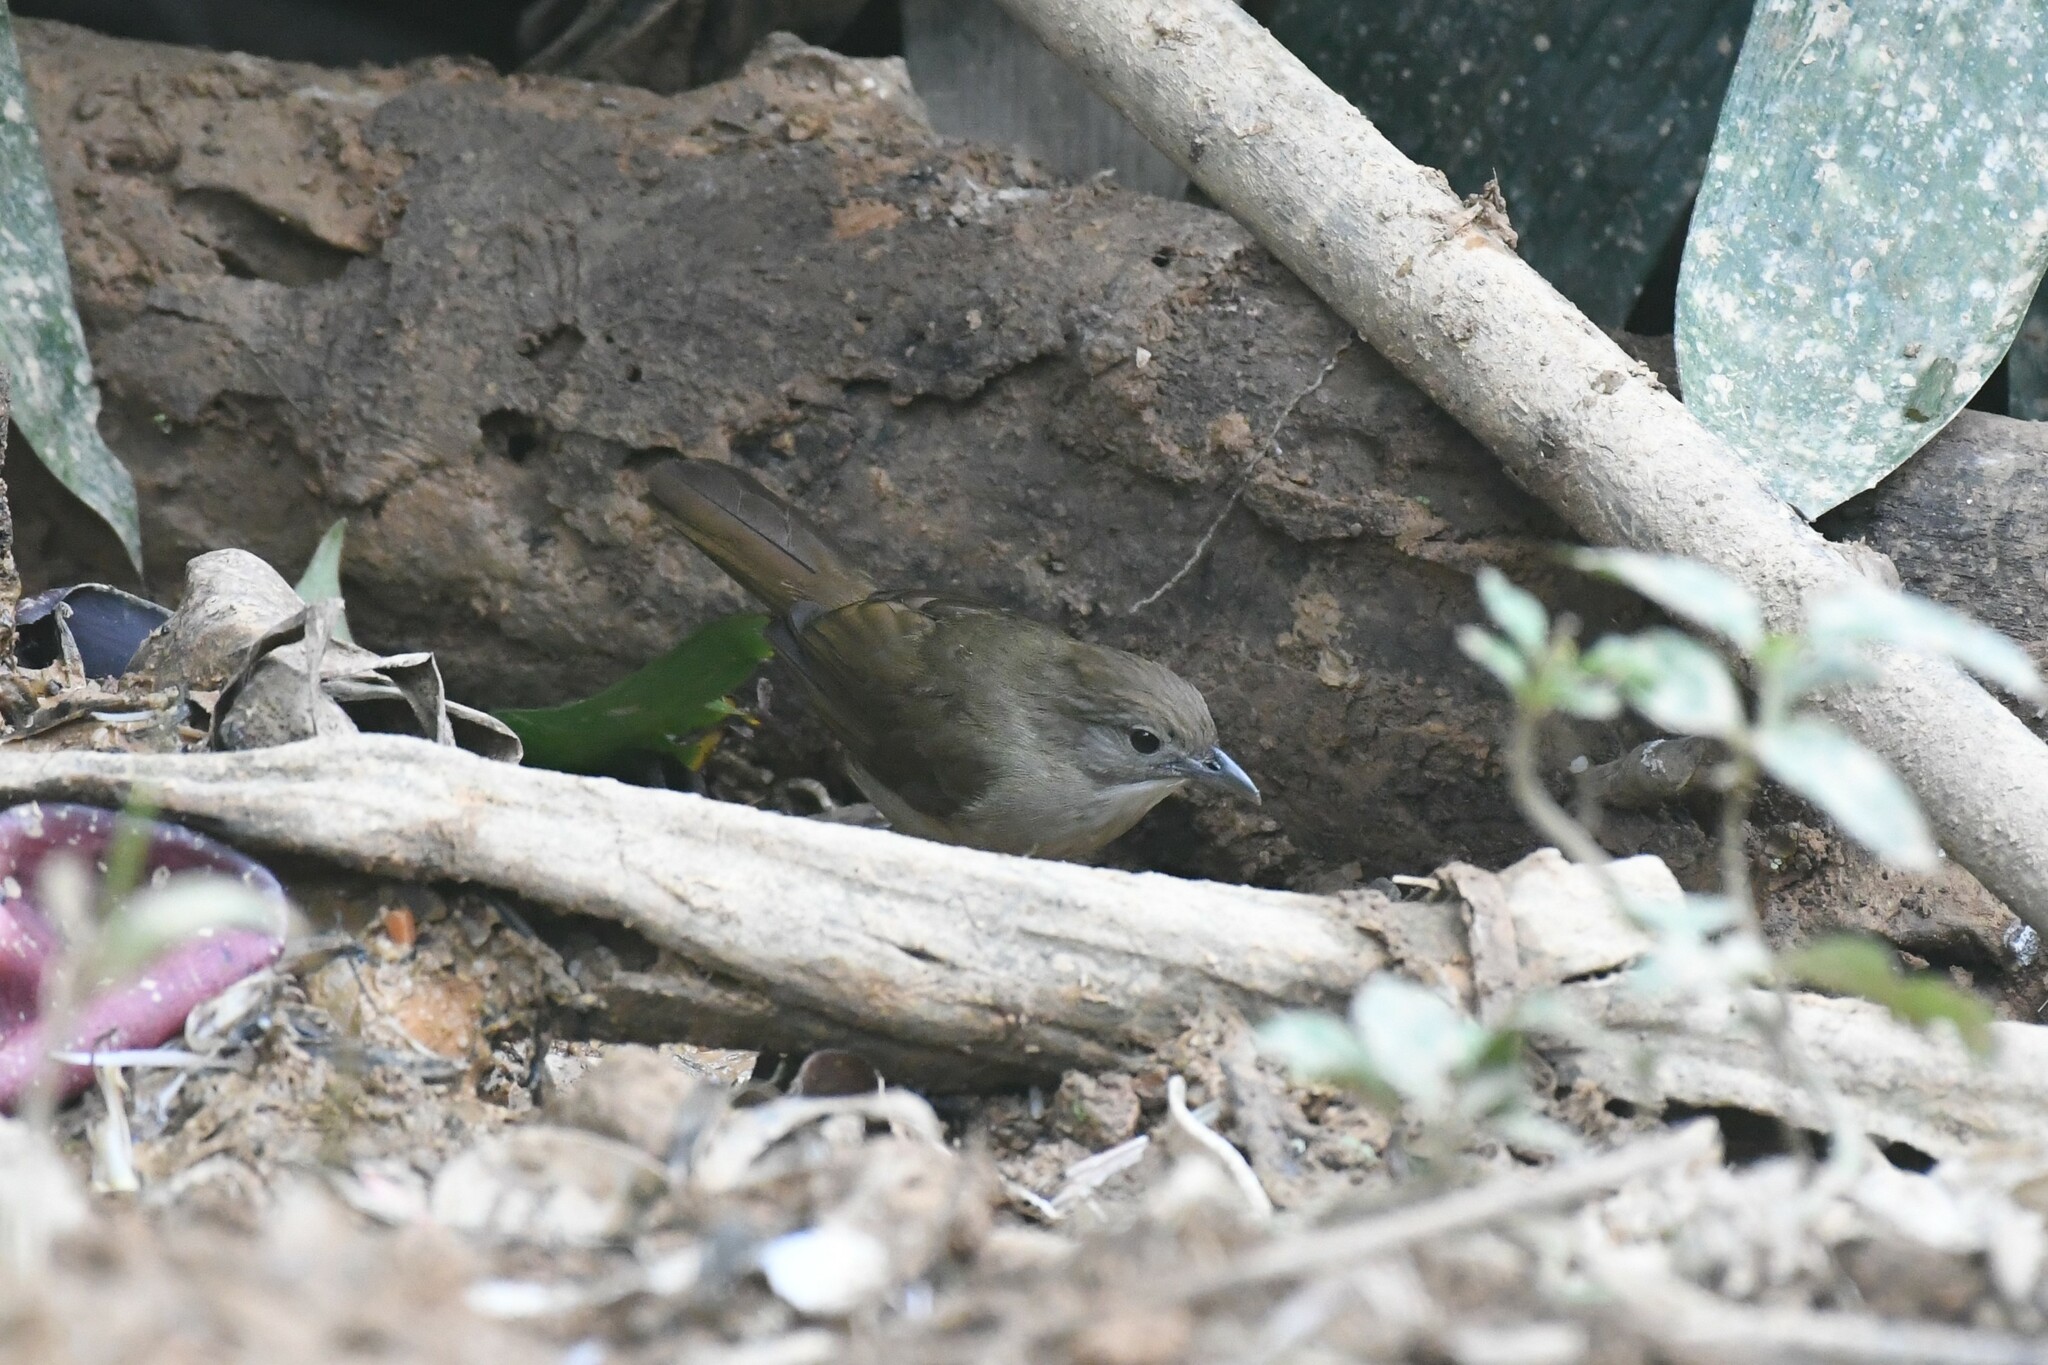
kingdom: Animalia
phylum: Chordata
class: Aves
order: Passeriformes
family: Pycnonotidae
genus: Alophoixus
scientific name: Alophoixus ochraceus
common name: Ochraceous bulbul
